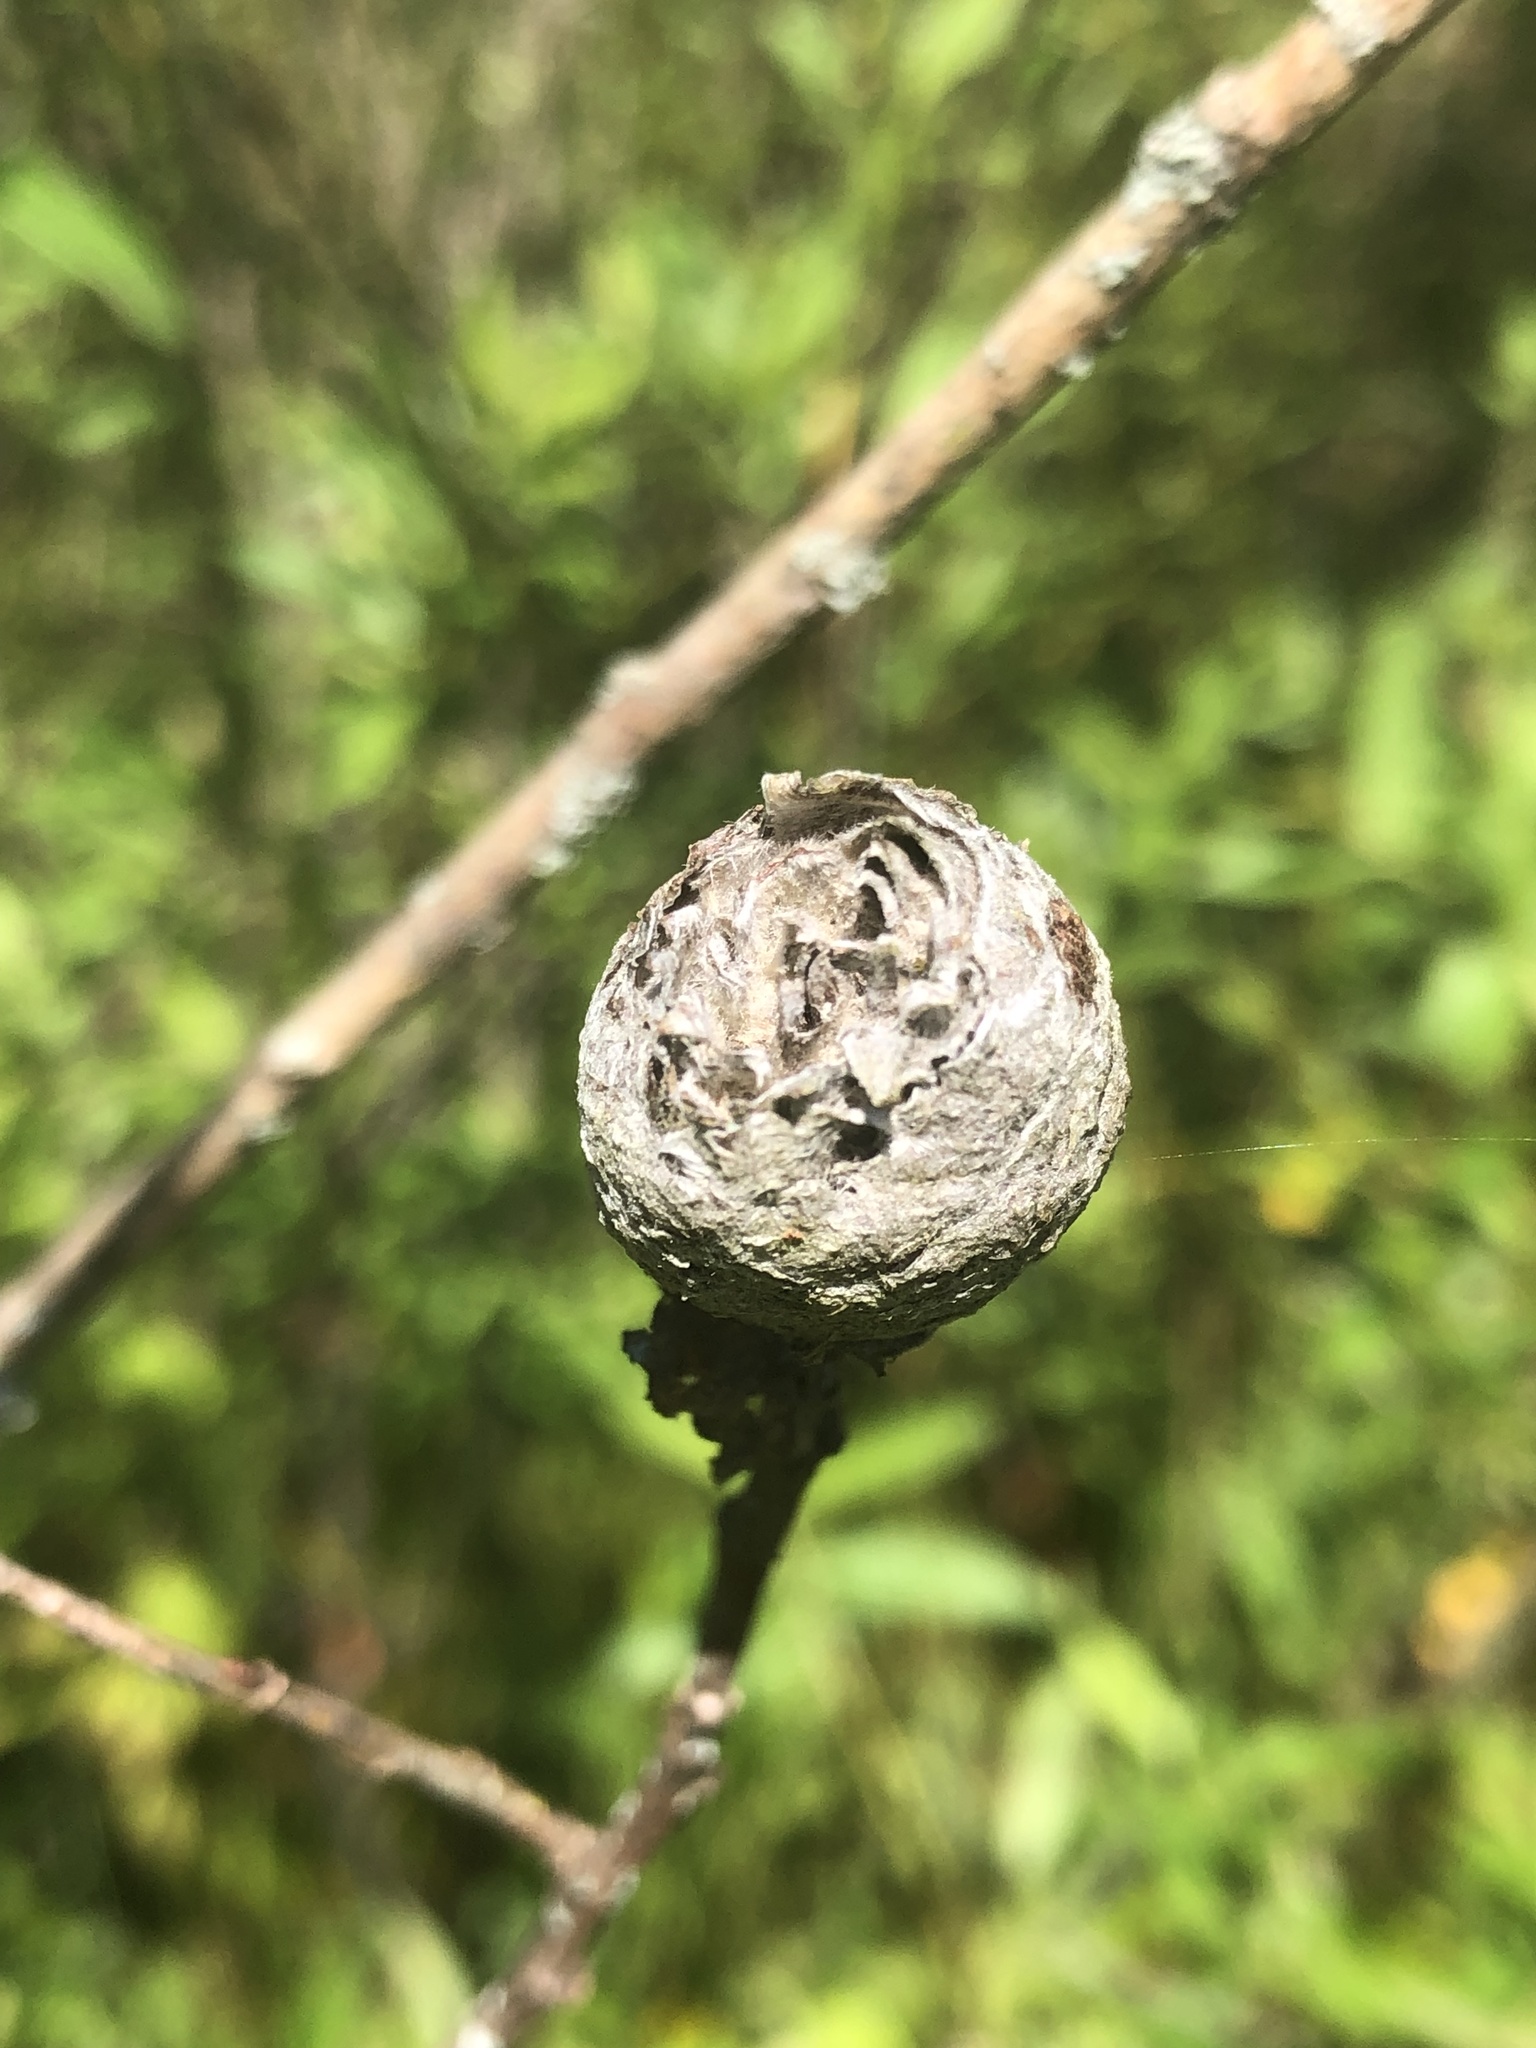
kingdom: Animalia
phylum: Arthropoda
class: Insecta
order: Diptera
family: Cecidomyiidae
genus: Rabdophaga
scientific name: Rabdophaga strobiloides
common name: Willow pinecone gall midge
